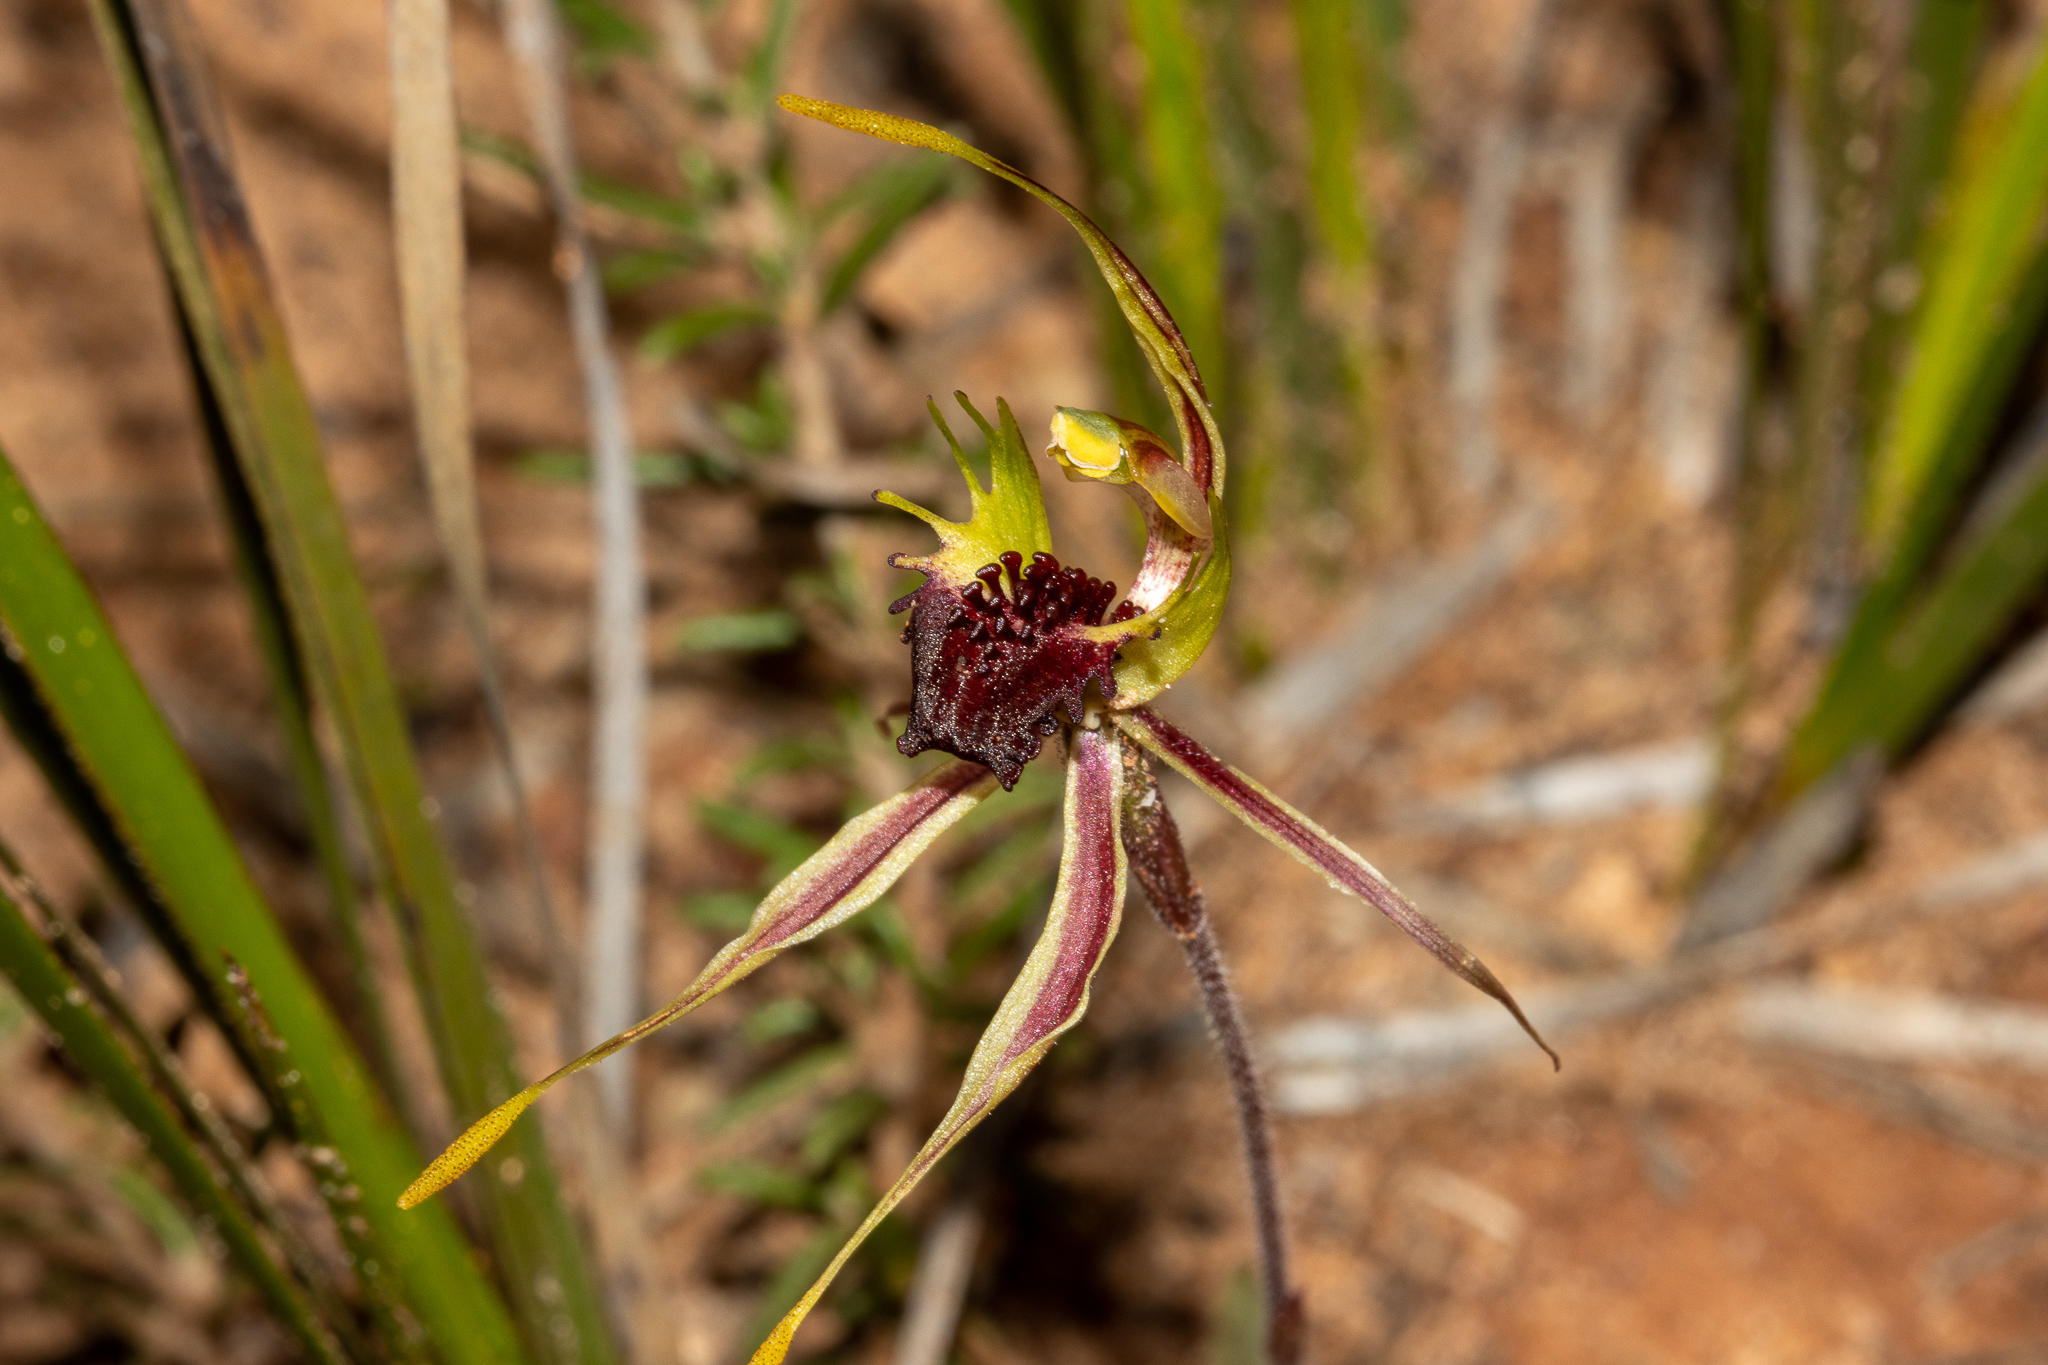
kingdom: Plantae
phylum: Tracheophyta
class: Liliopsida
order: Asparagales
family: Orchidaceae
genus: Caladenia
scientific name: Caladenia septuosa
